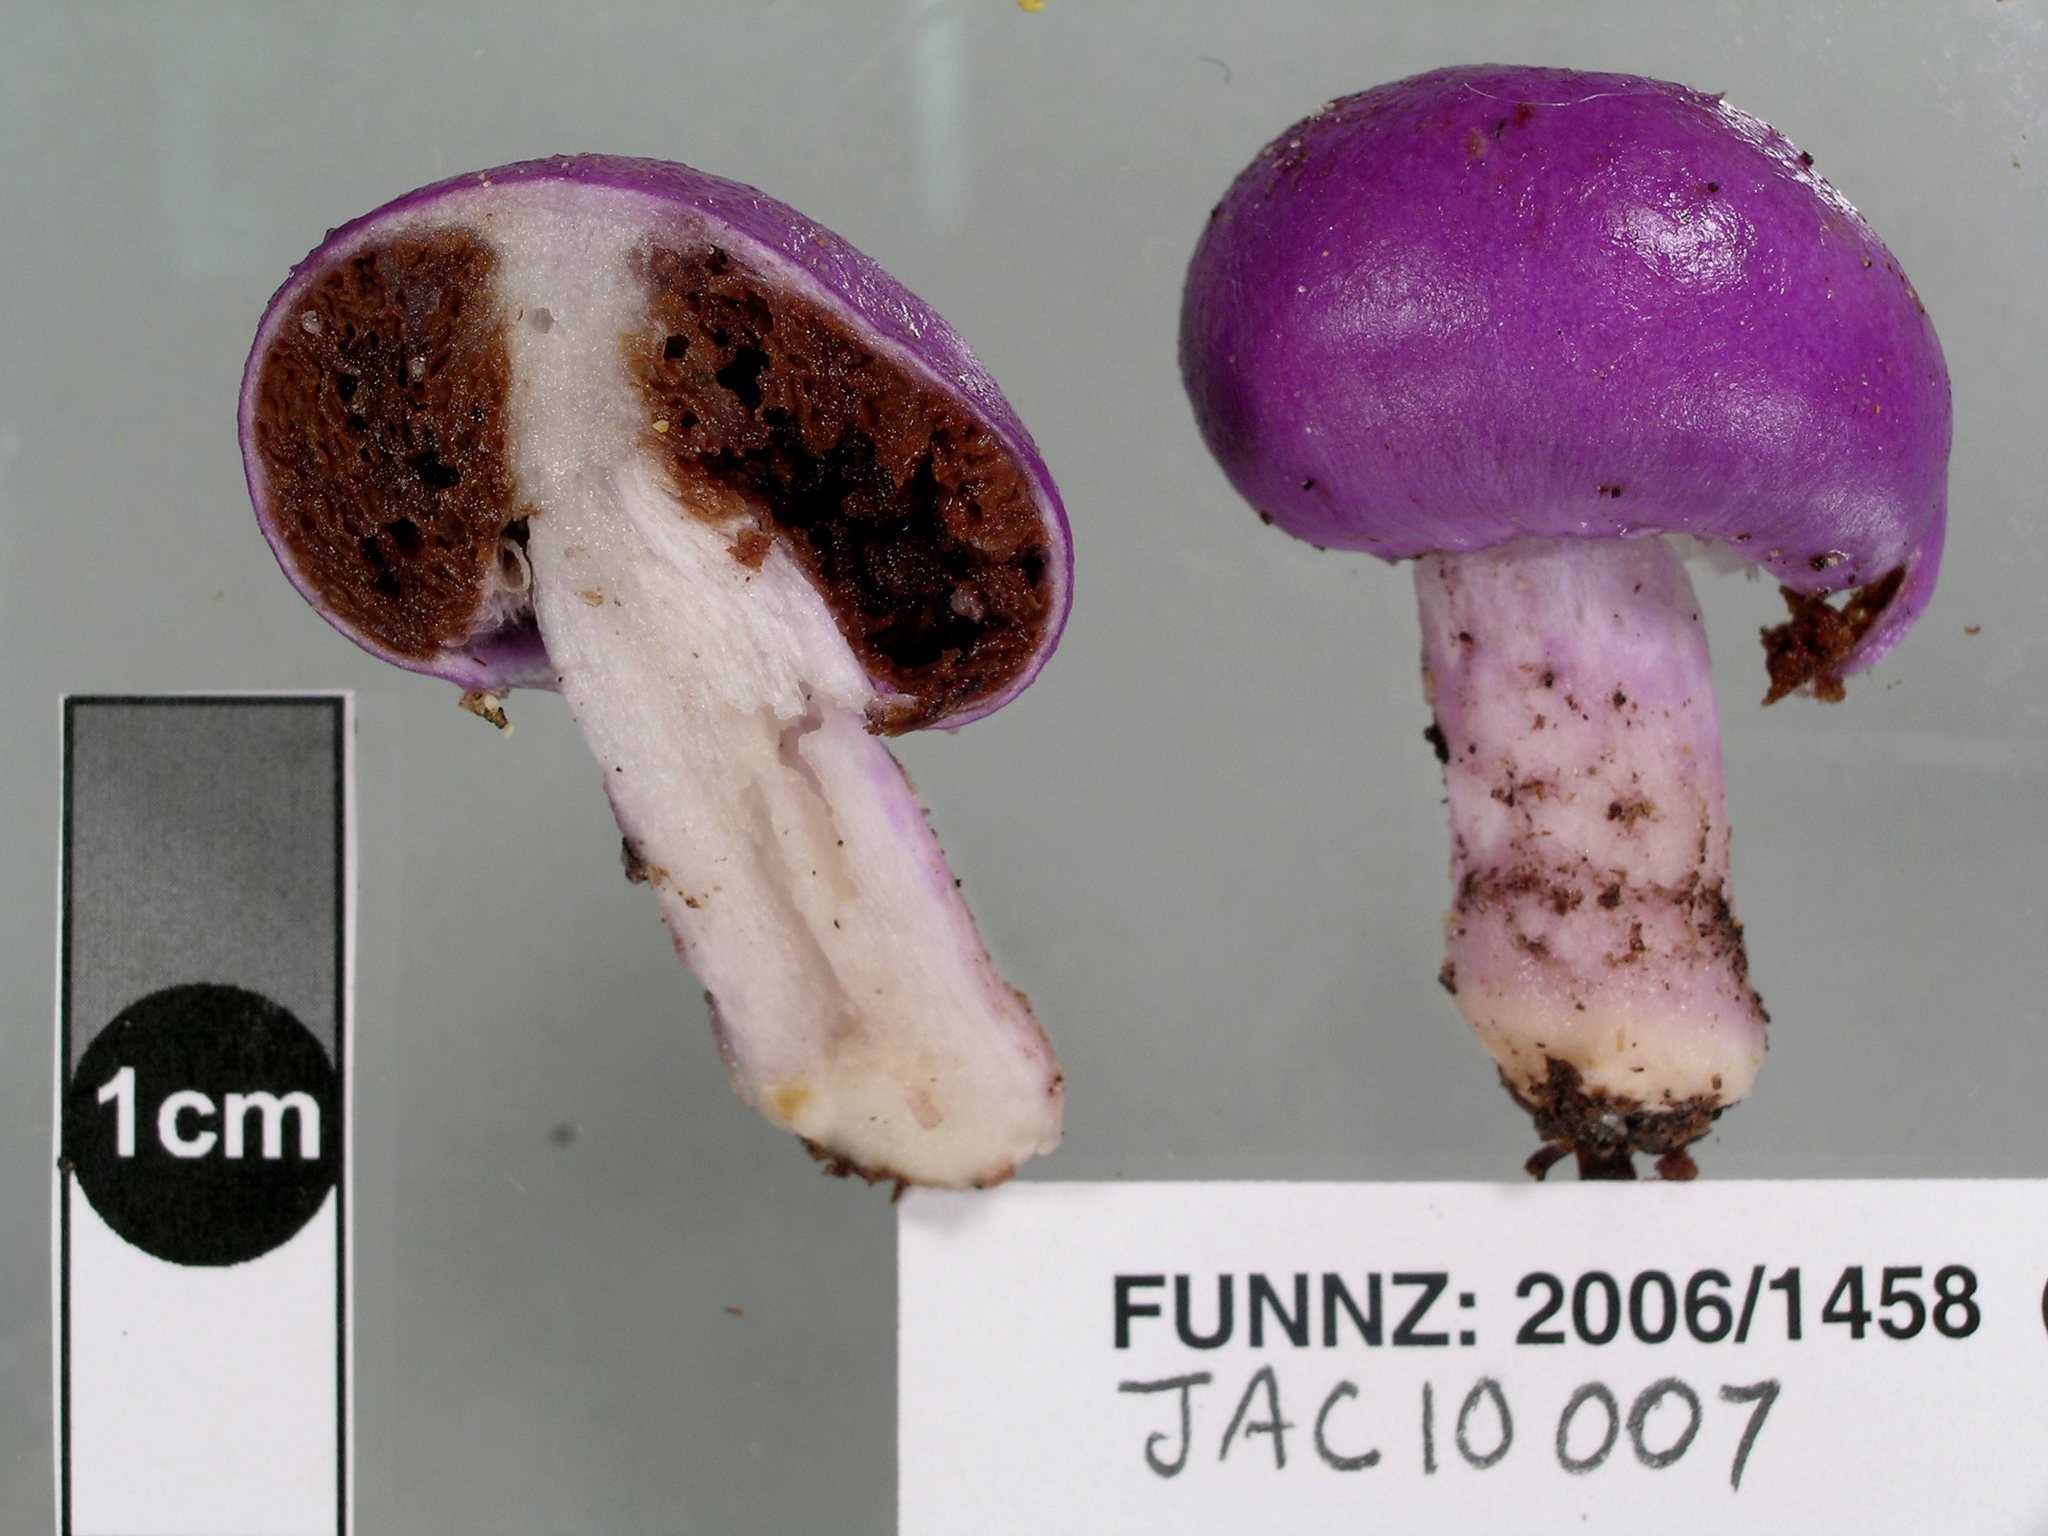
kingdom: Fungi
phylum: Basidiomycota
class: Agaricomycetes
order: Agaricales
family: Cortinariaceae
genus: Cortinarius
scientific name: Cortinarius violaceovolvatus
